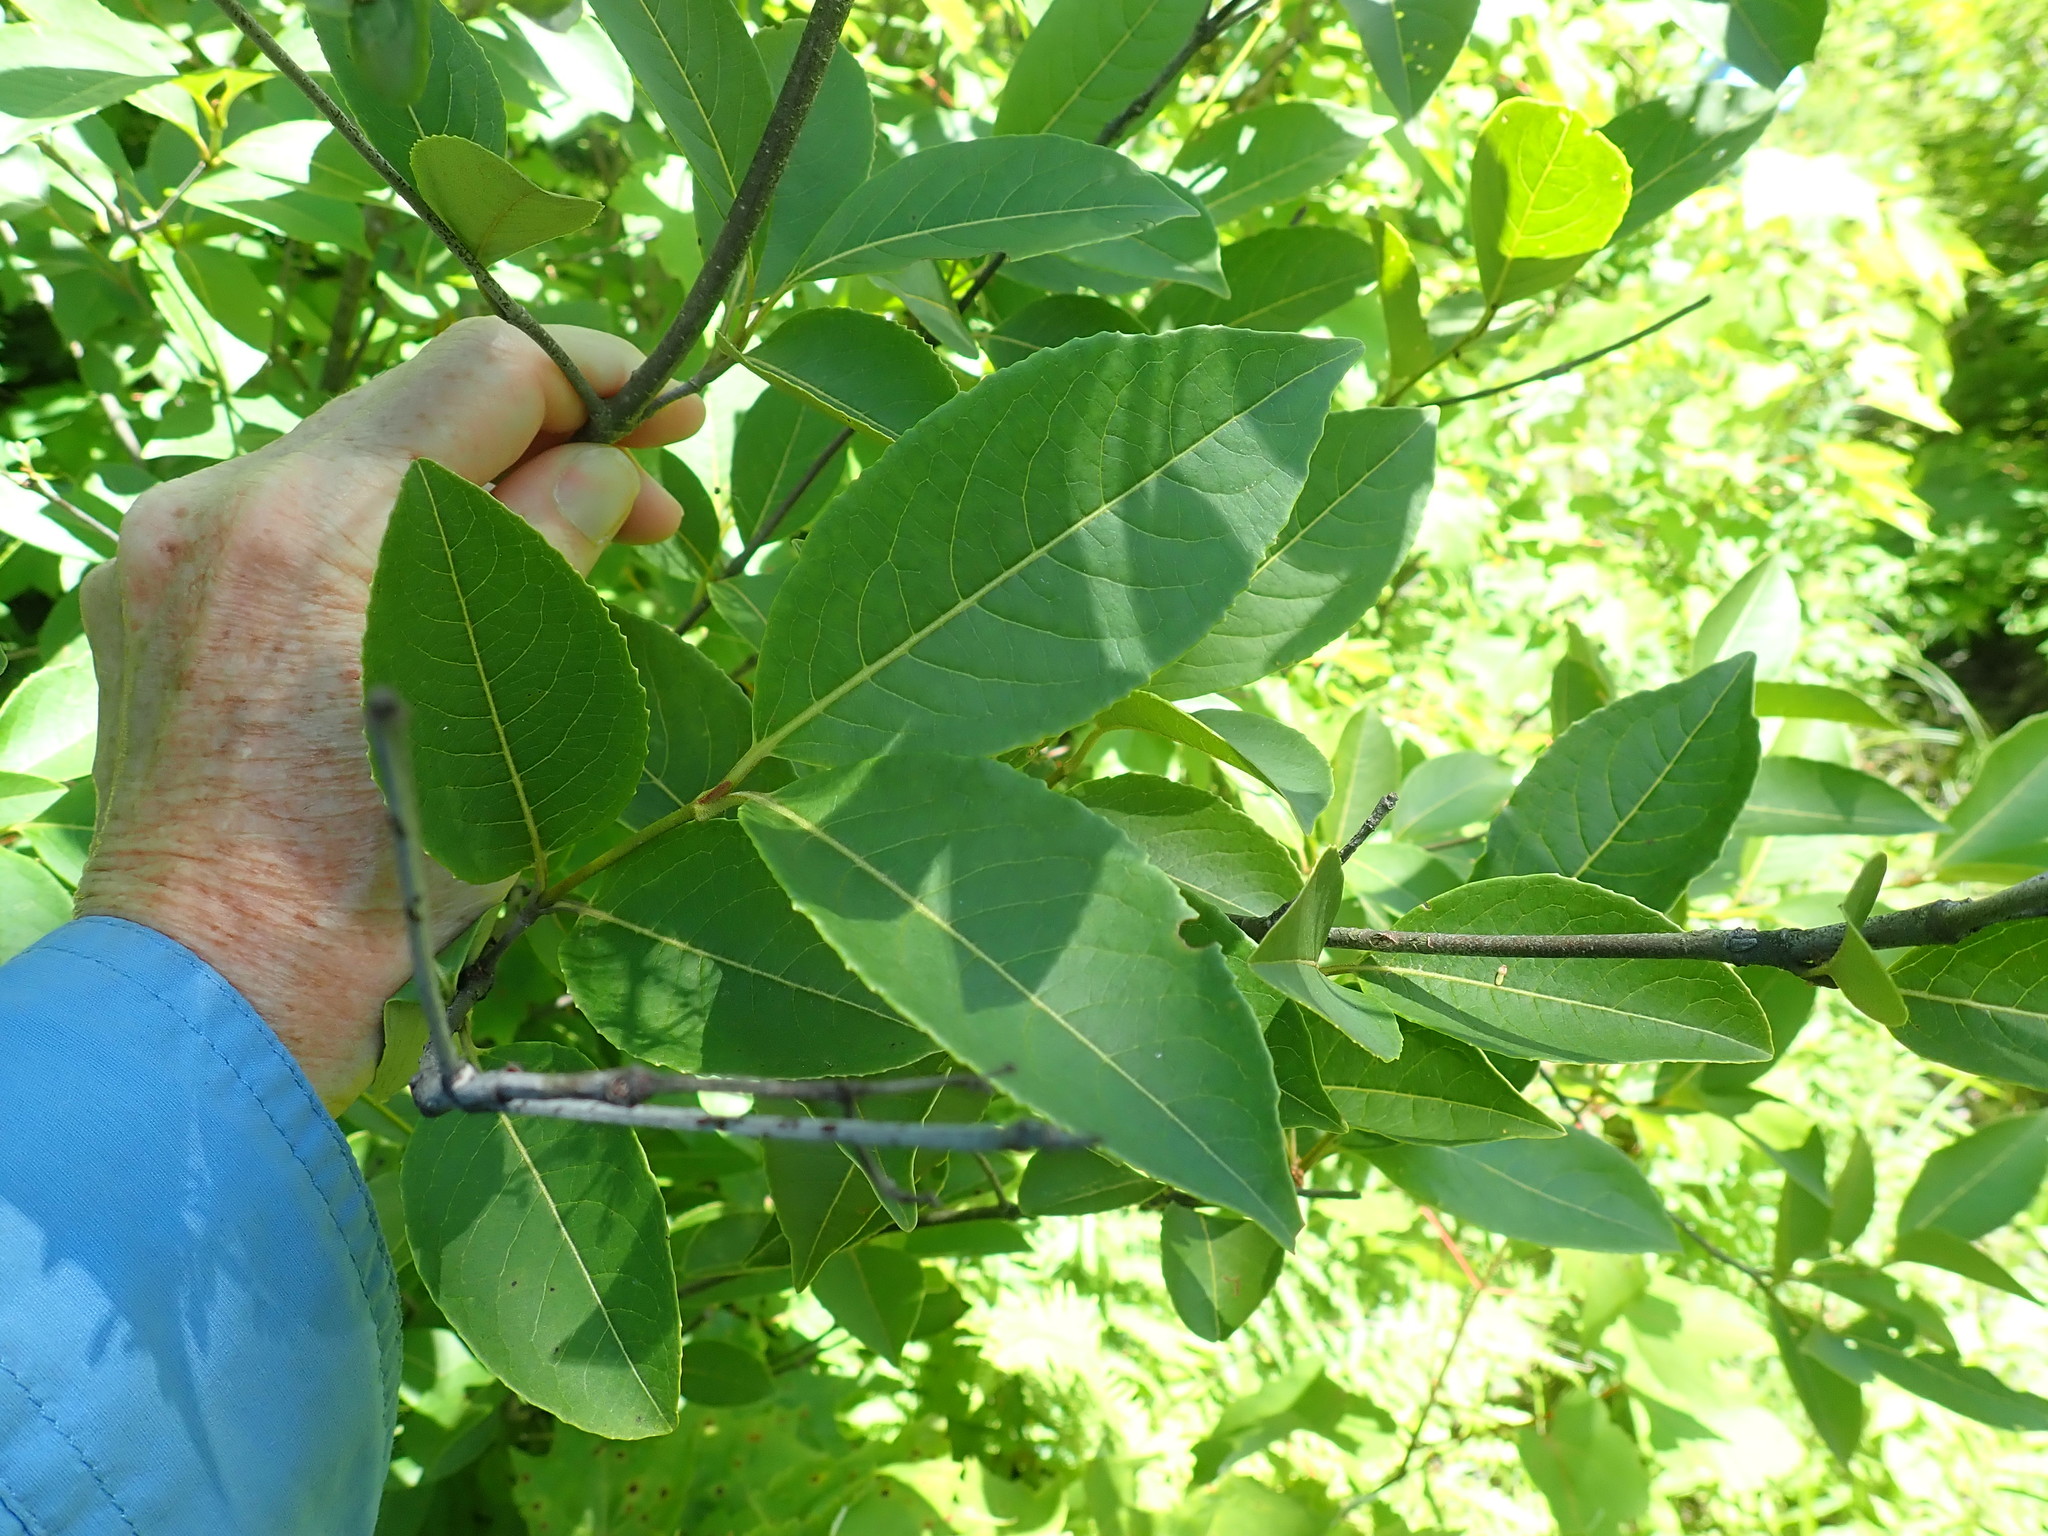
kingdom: Plantae
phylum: Tracheophyta
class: Magnoliopsida
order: Dipsacales
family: Viburnaceae
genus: Viburnum
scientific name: Viburnum cassinoides
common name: Swamp haw
